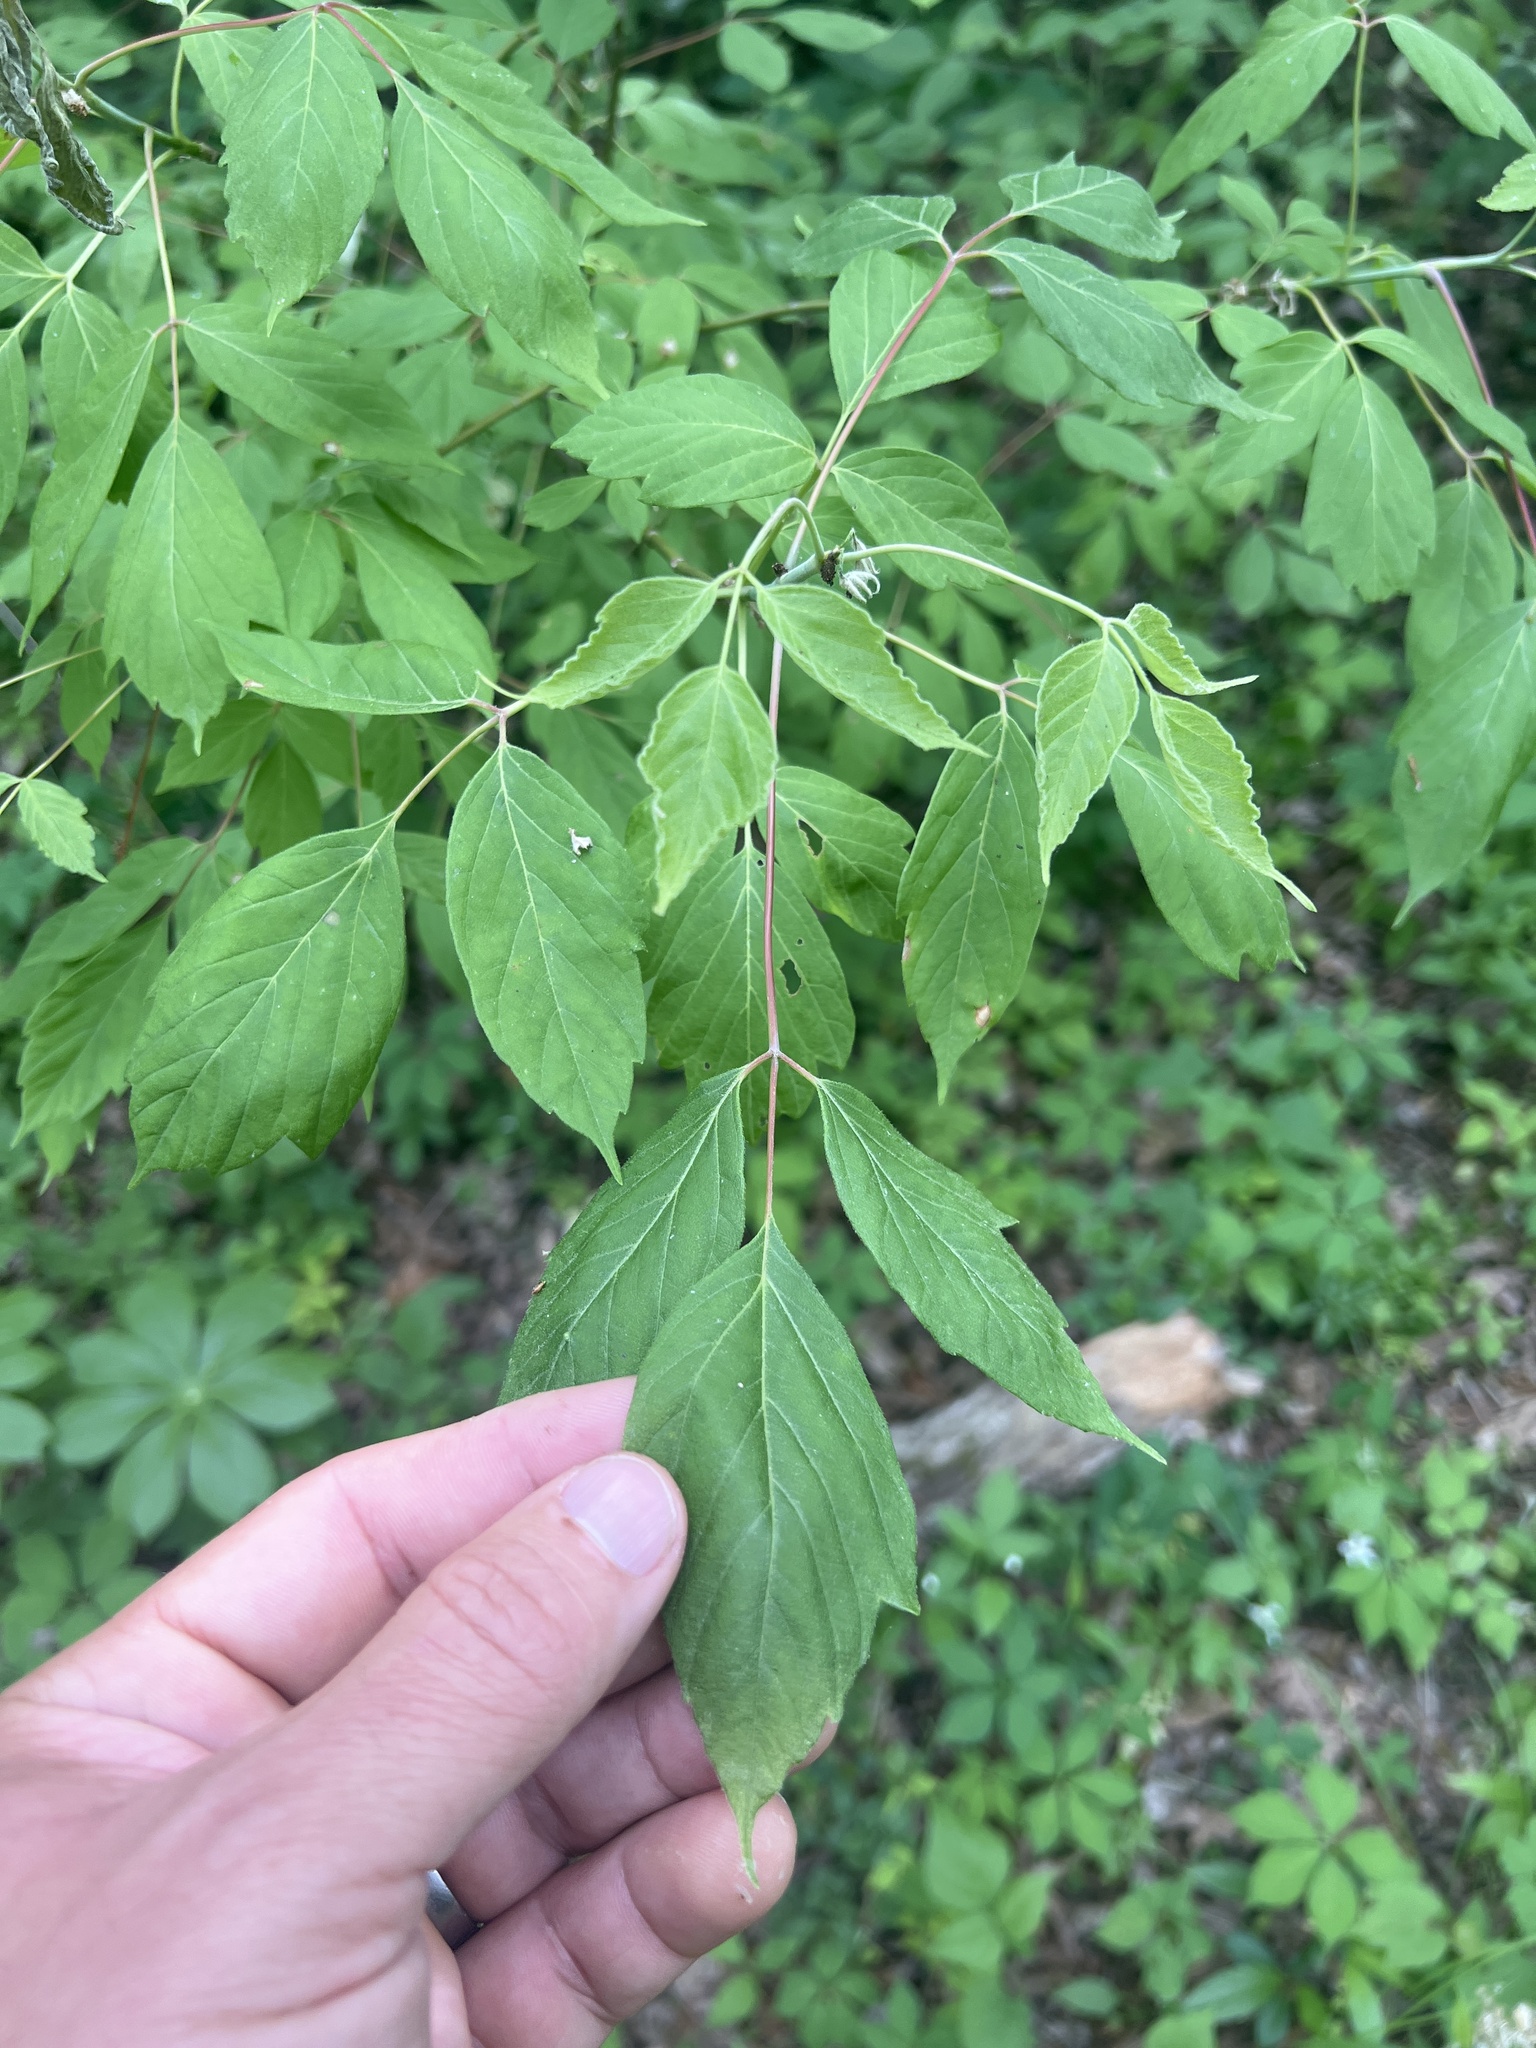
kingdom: Plantae
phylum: Tracheophyta
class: Magnoliopsida
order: Sapindales
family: Sapindaceae
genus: Acer
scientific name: Acer negundo
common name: Ashleaf maple
